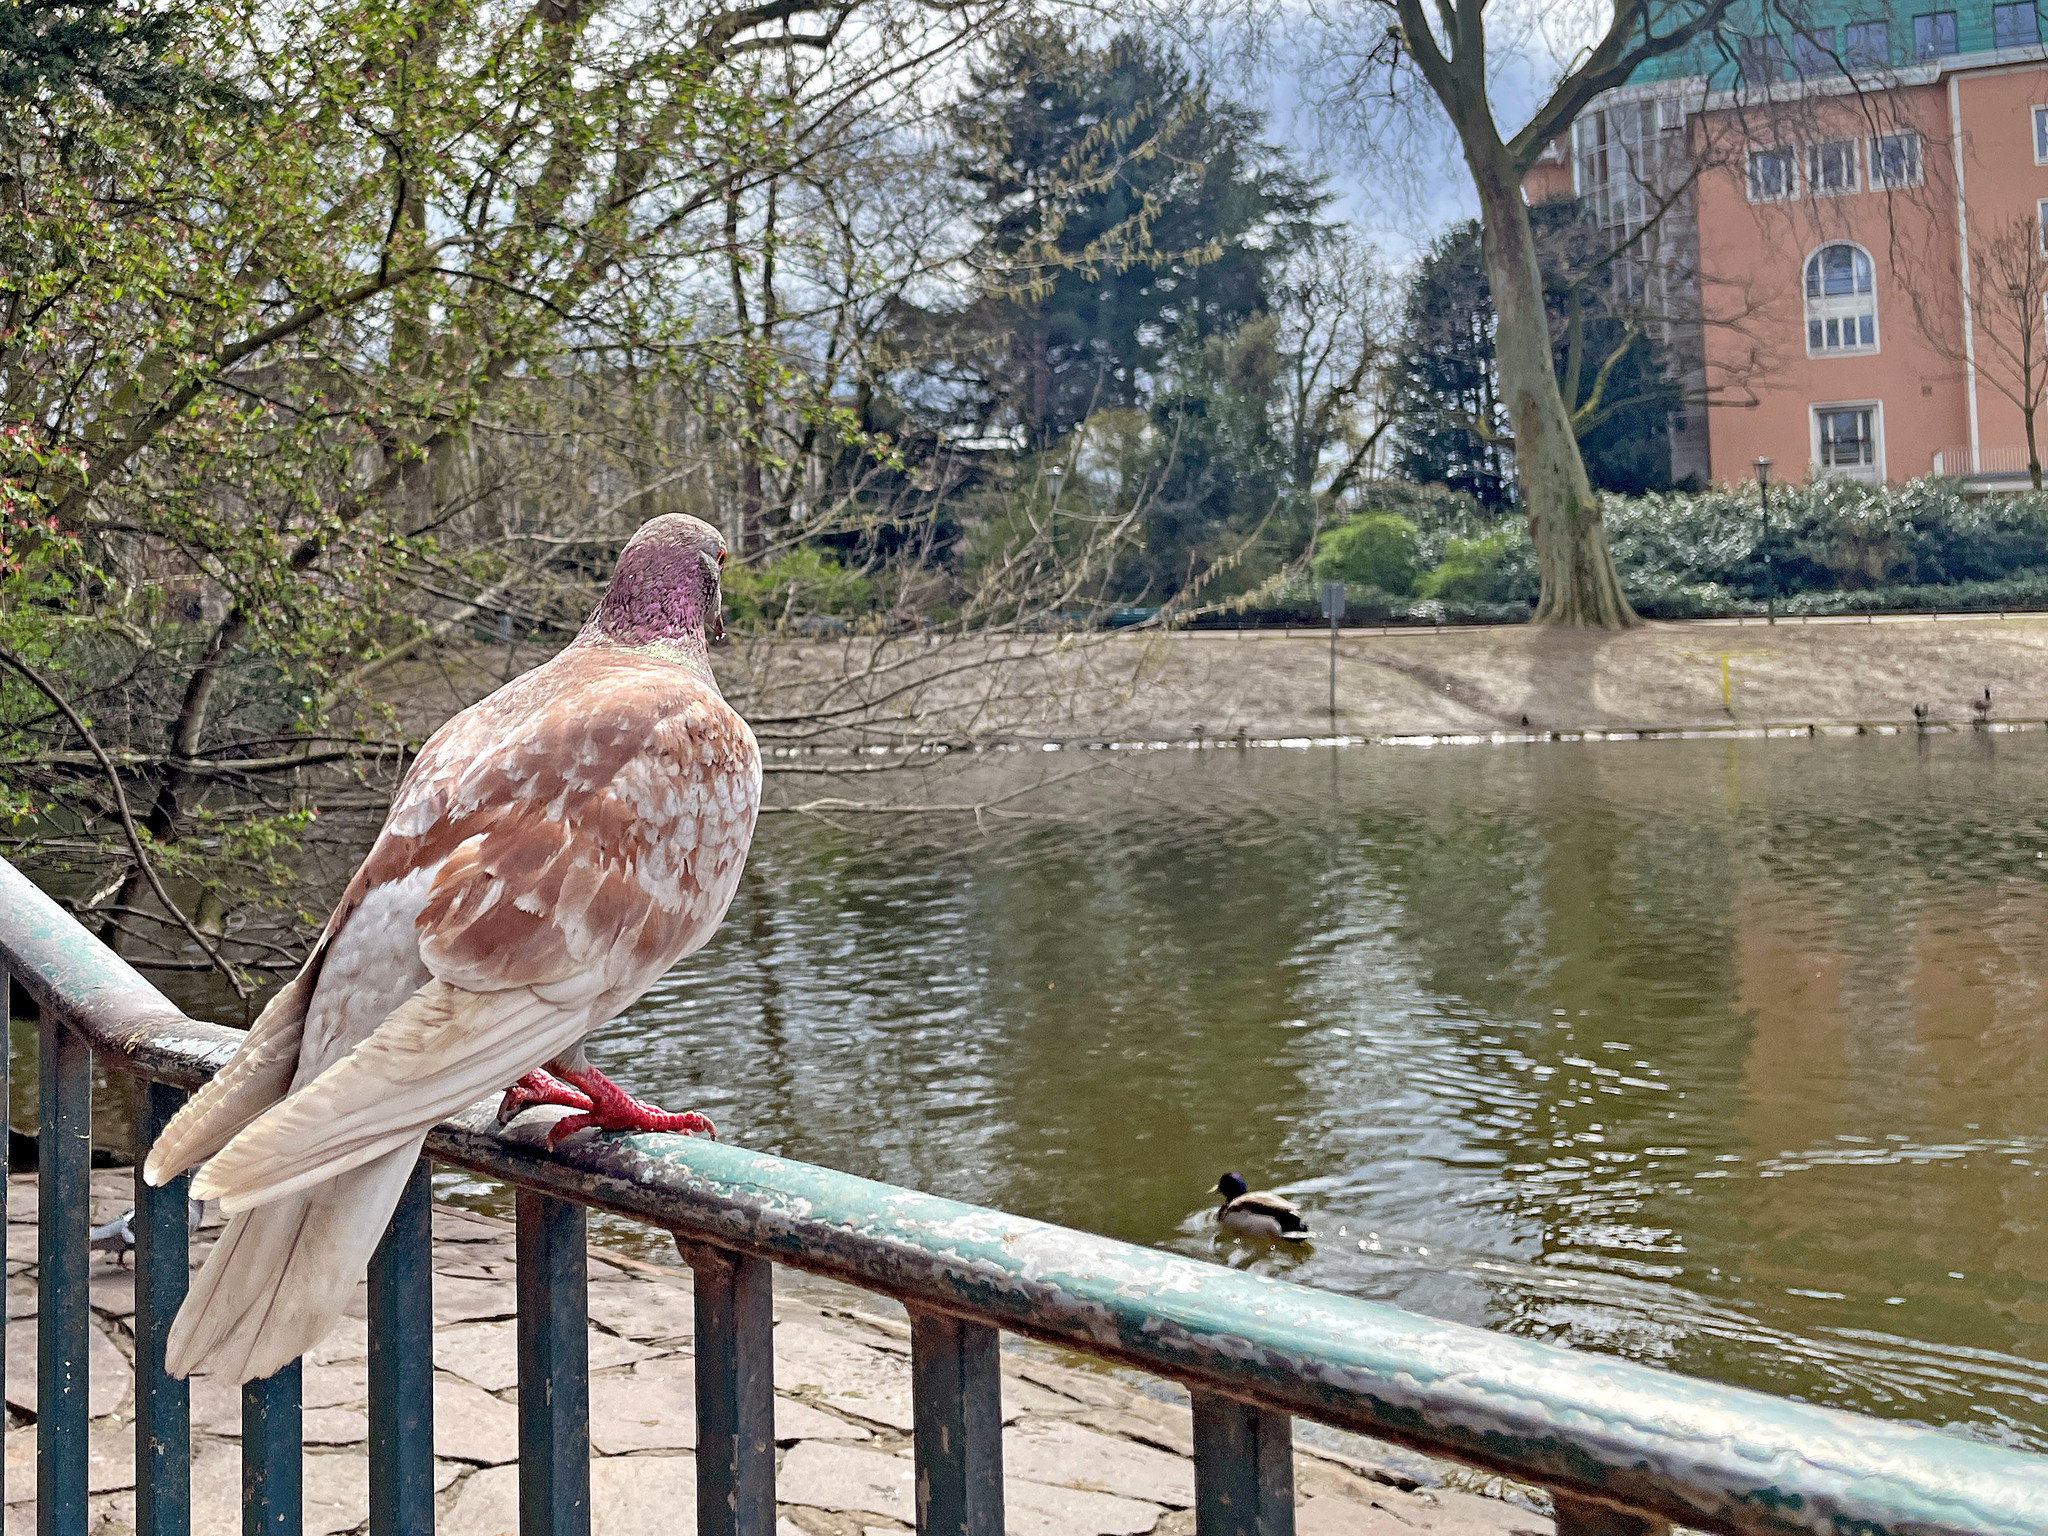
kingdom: Animalia
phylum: Chordata
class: Aves
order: Columbiformes
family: Columbidae
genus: Columba
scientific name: Columba livia
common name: Rock pigeon
